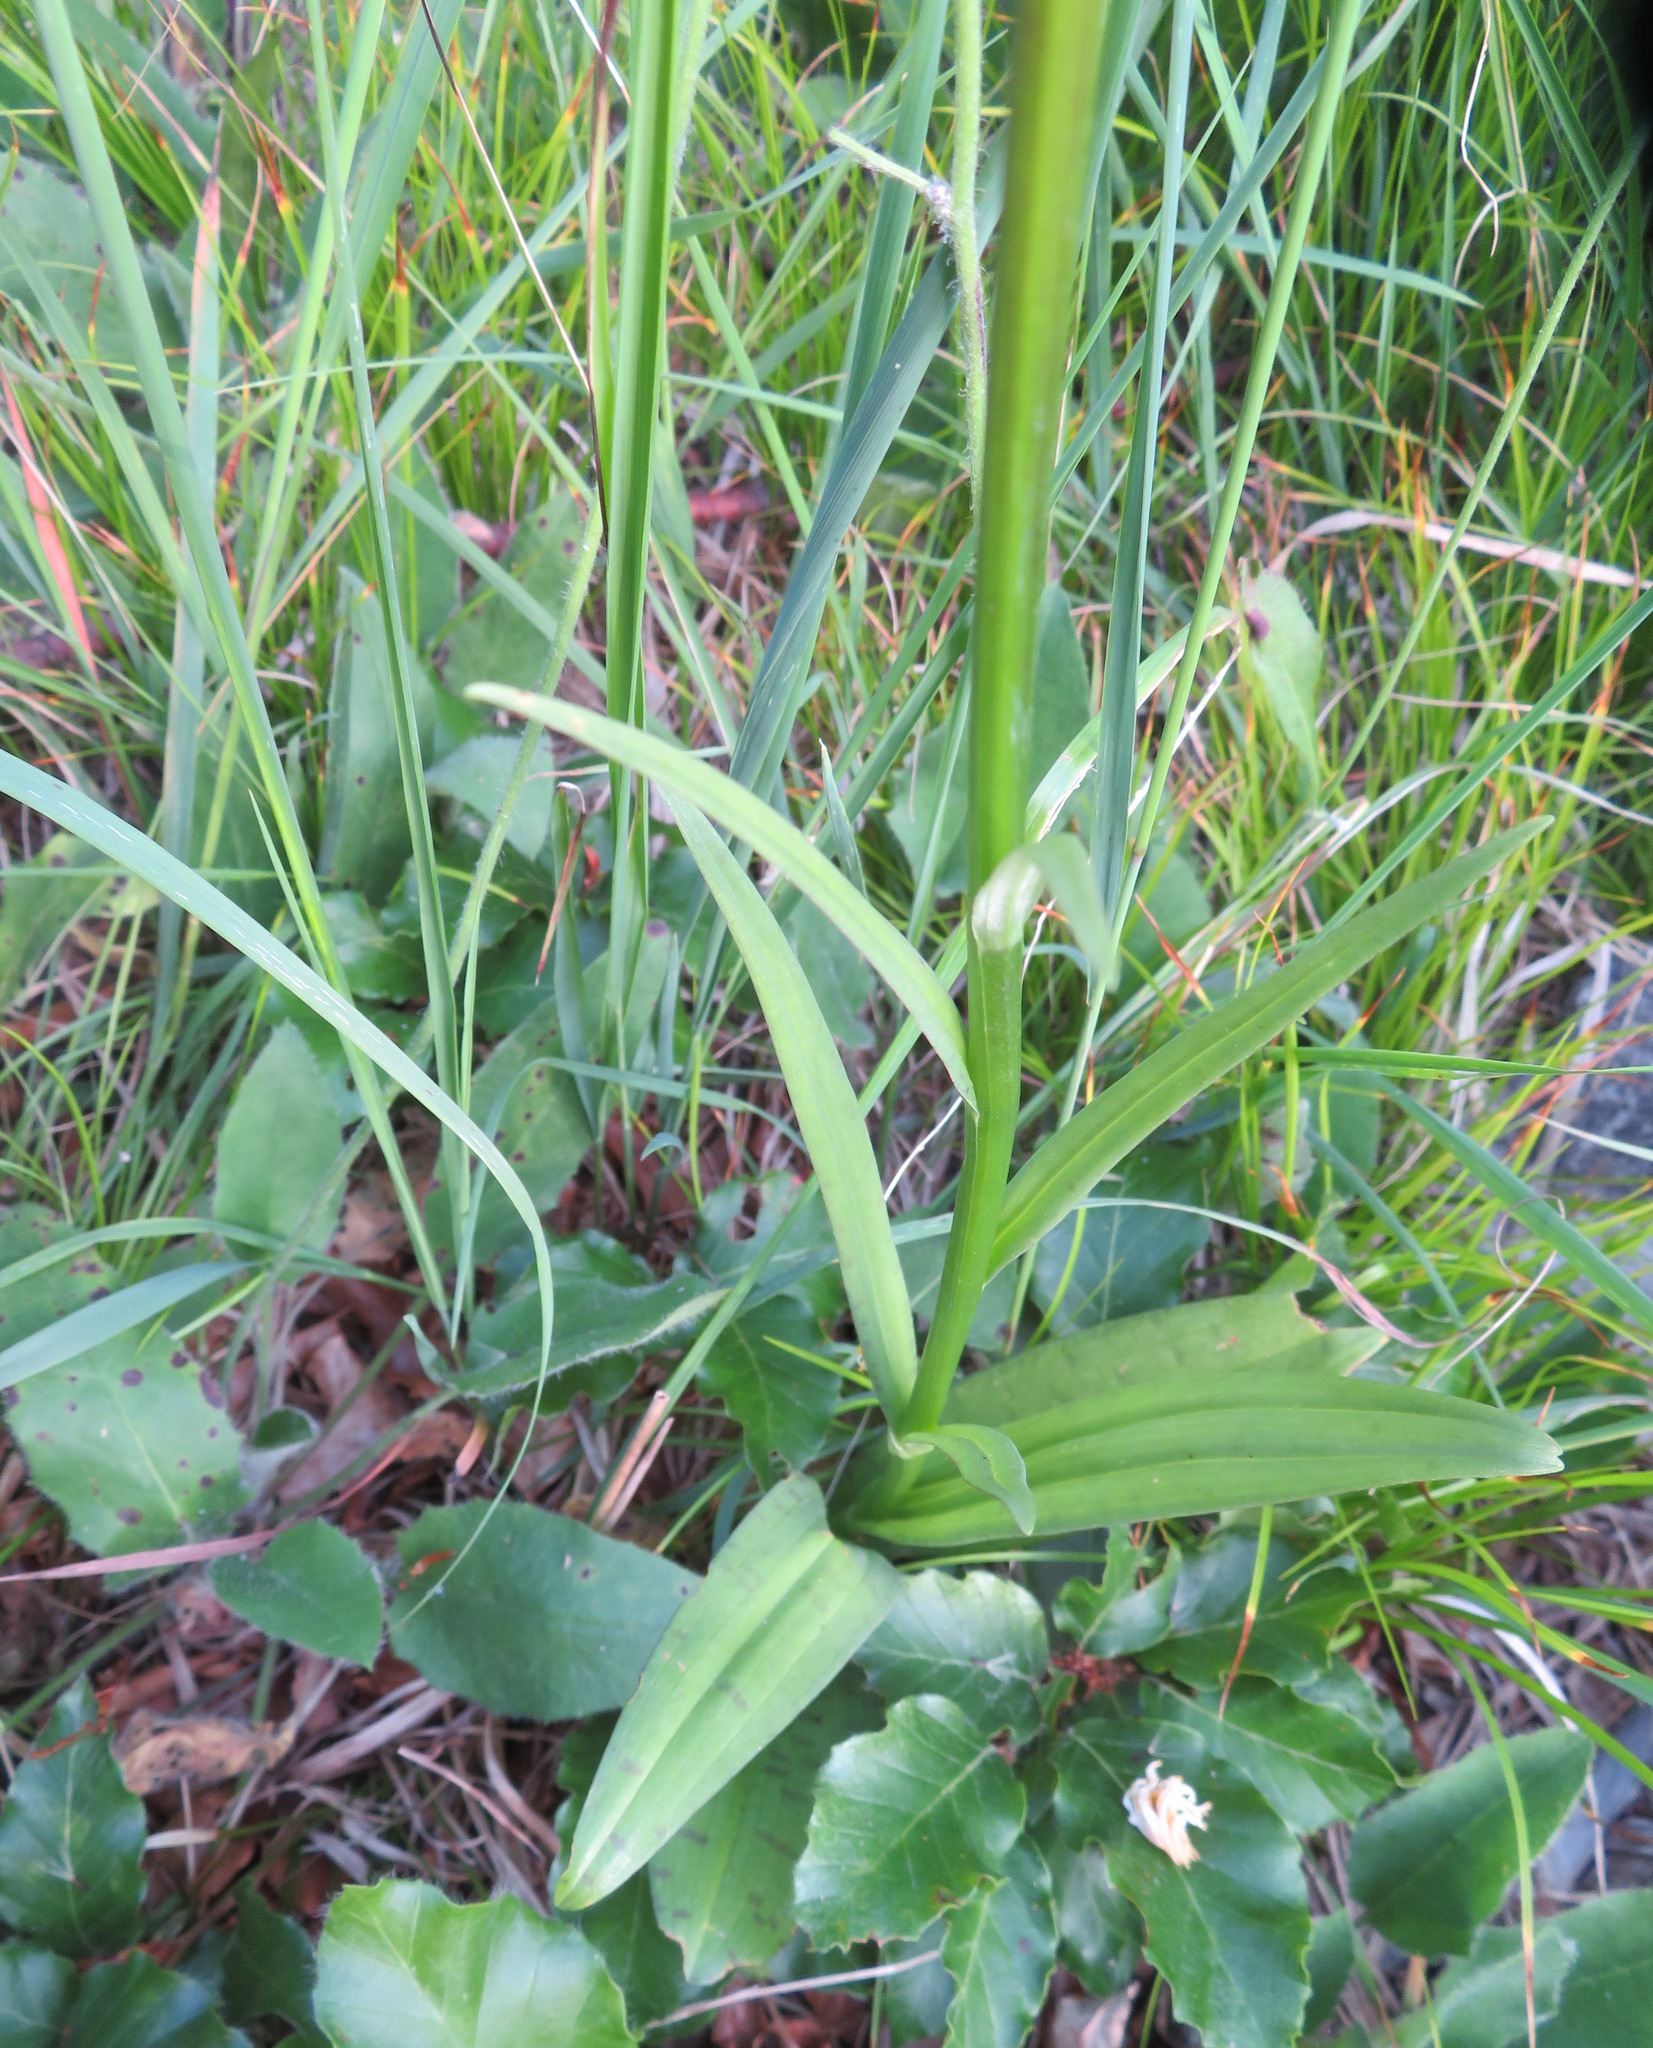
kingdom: Plantae
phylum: Tracheophyta
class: Liliopsida
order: Asparagales
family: Orchidaceae
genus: Dactylorhiza
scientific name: Dactylorhiza maculata
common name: Heath spotted-orchid
